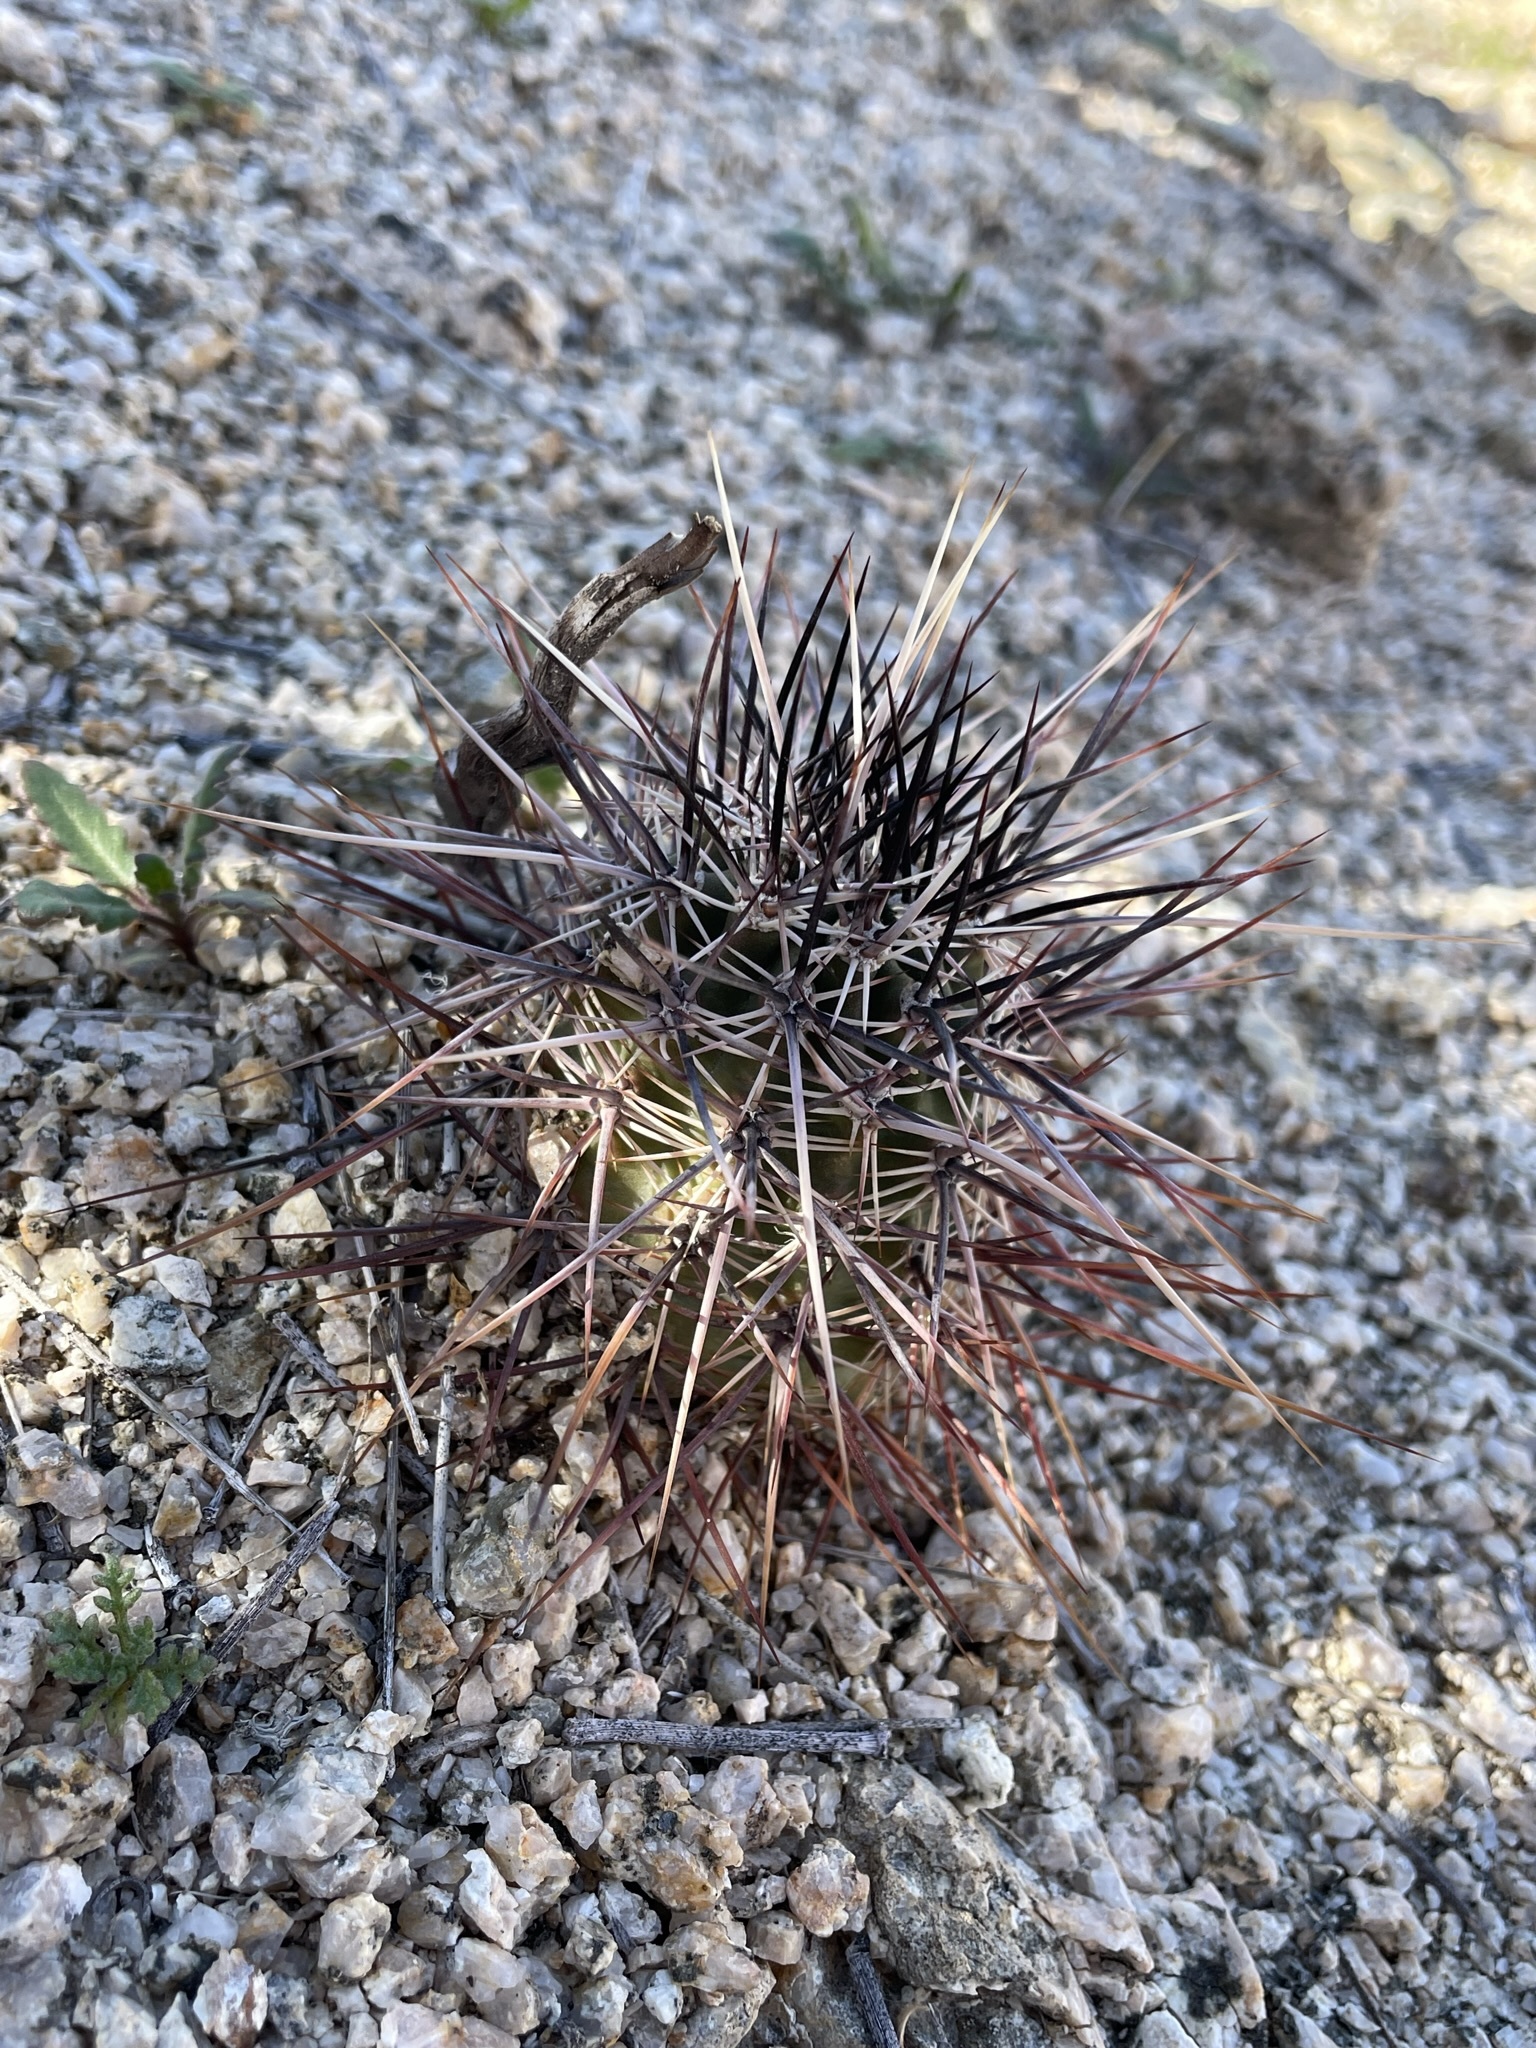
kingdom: Plantae
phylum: Tracheophyta
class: Magnoliopsida
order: Caryophyllales
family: Cactaceae
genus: Echinocereus
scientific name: Echinocereus engelmannii
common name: Engelmann's hedgehog cactus
